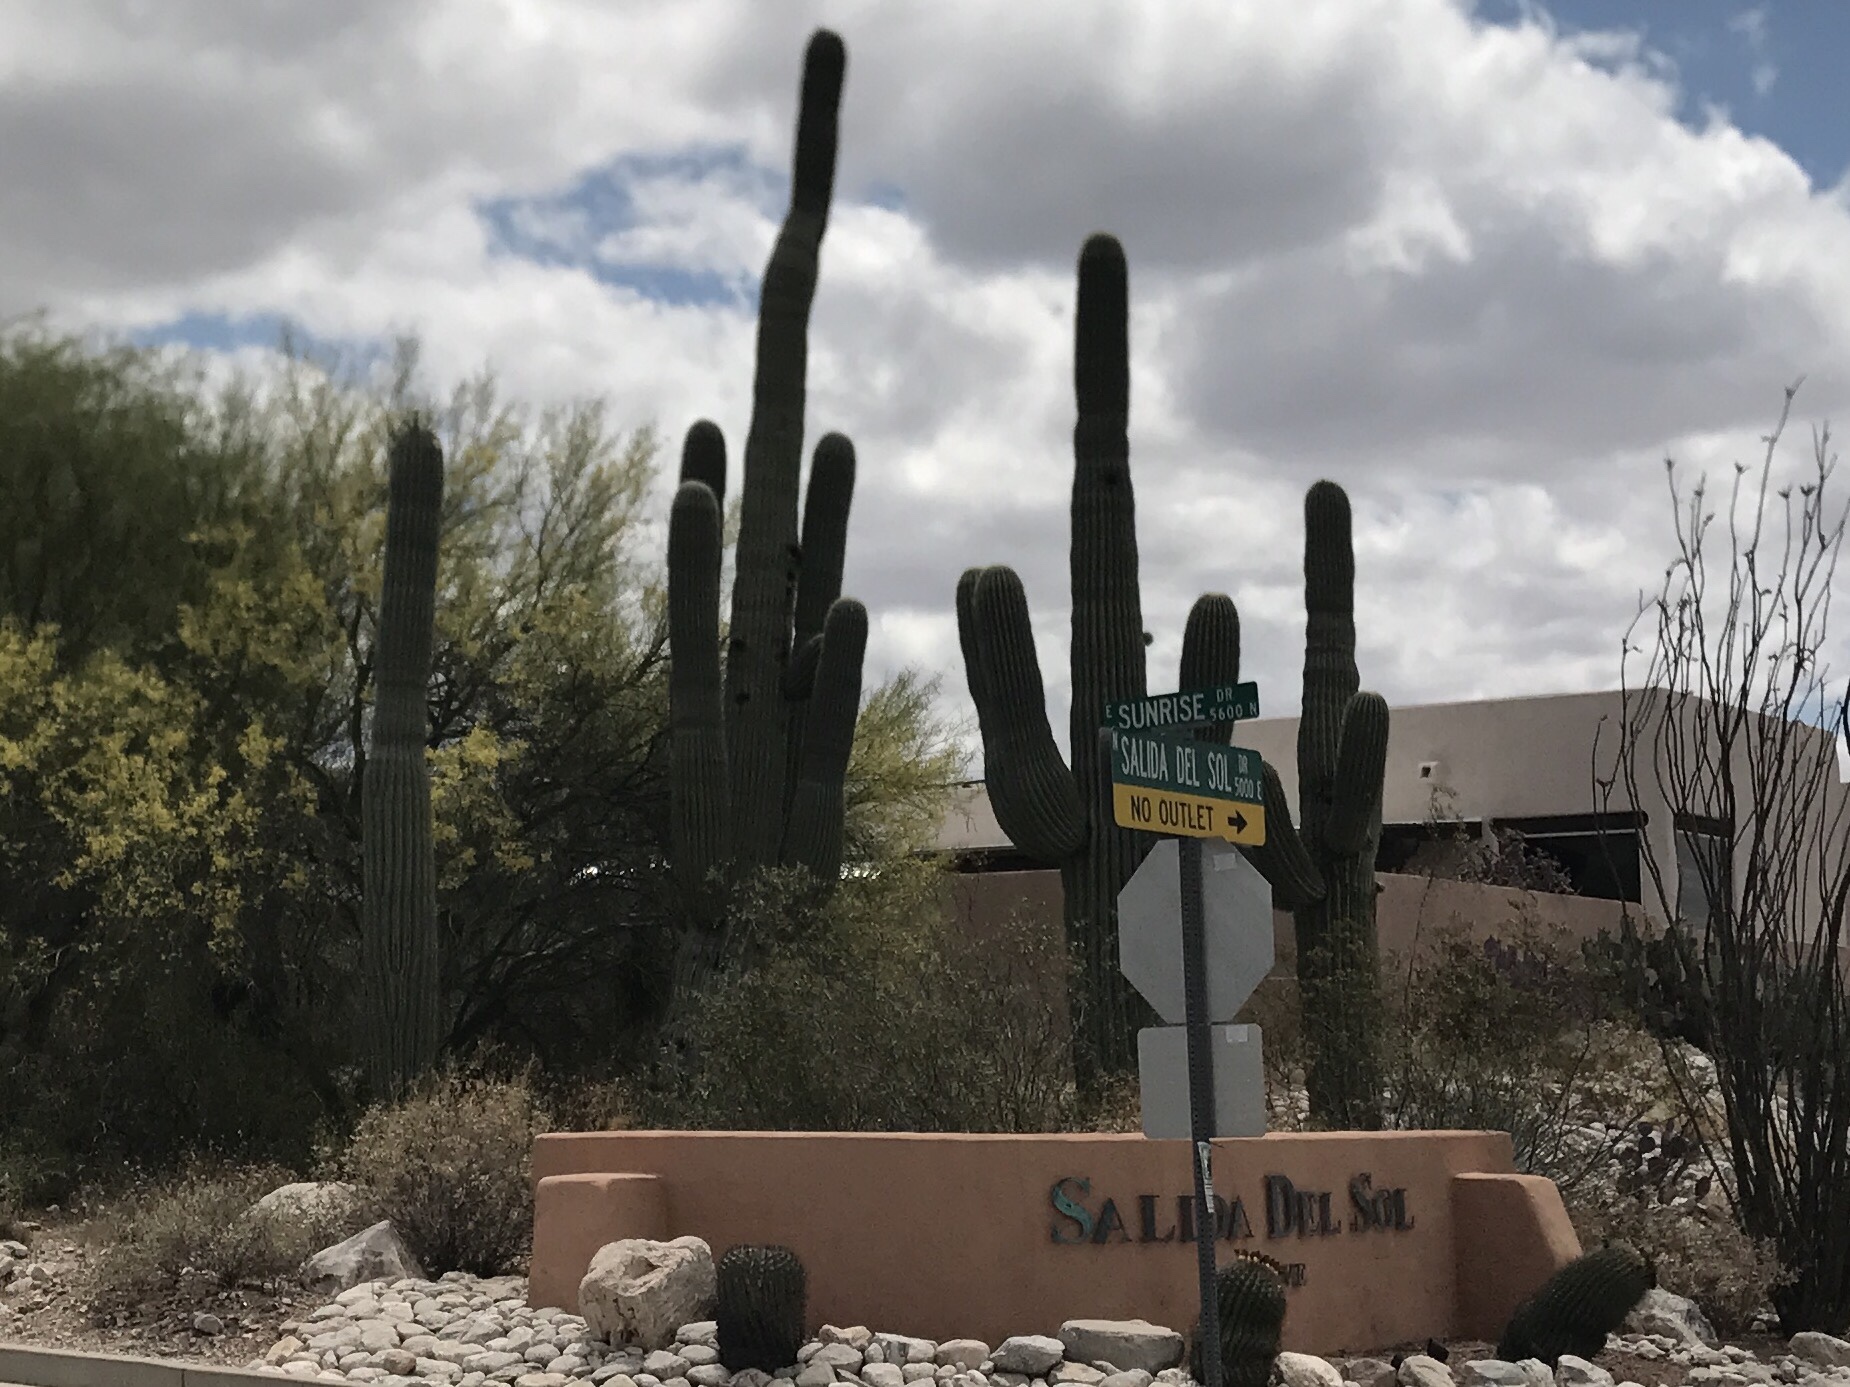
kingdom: Plantae
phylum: Tracheophyta
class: Magnoliopsida
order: Caryophyllales
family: Cactaceae
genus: Carnegiea
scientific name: Carnegiea gigantea
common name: Saguaro
